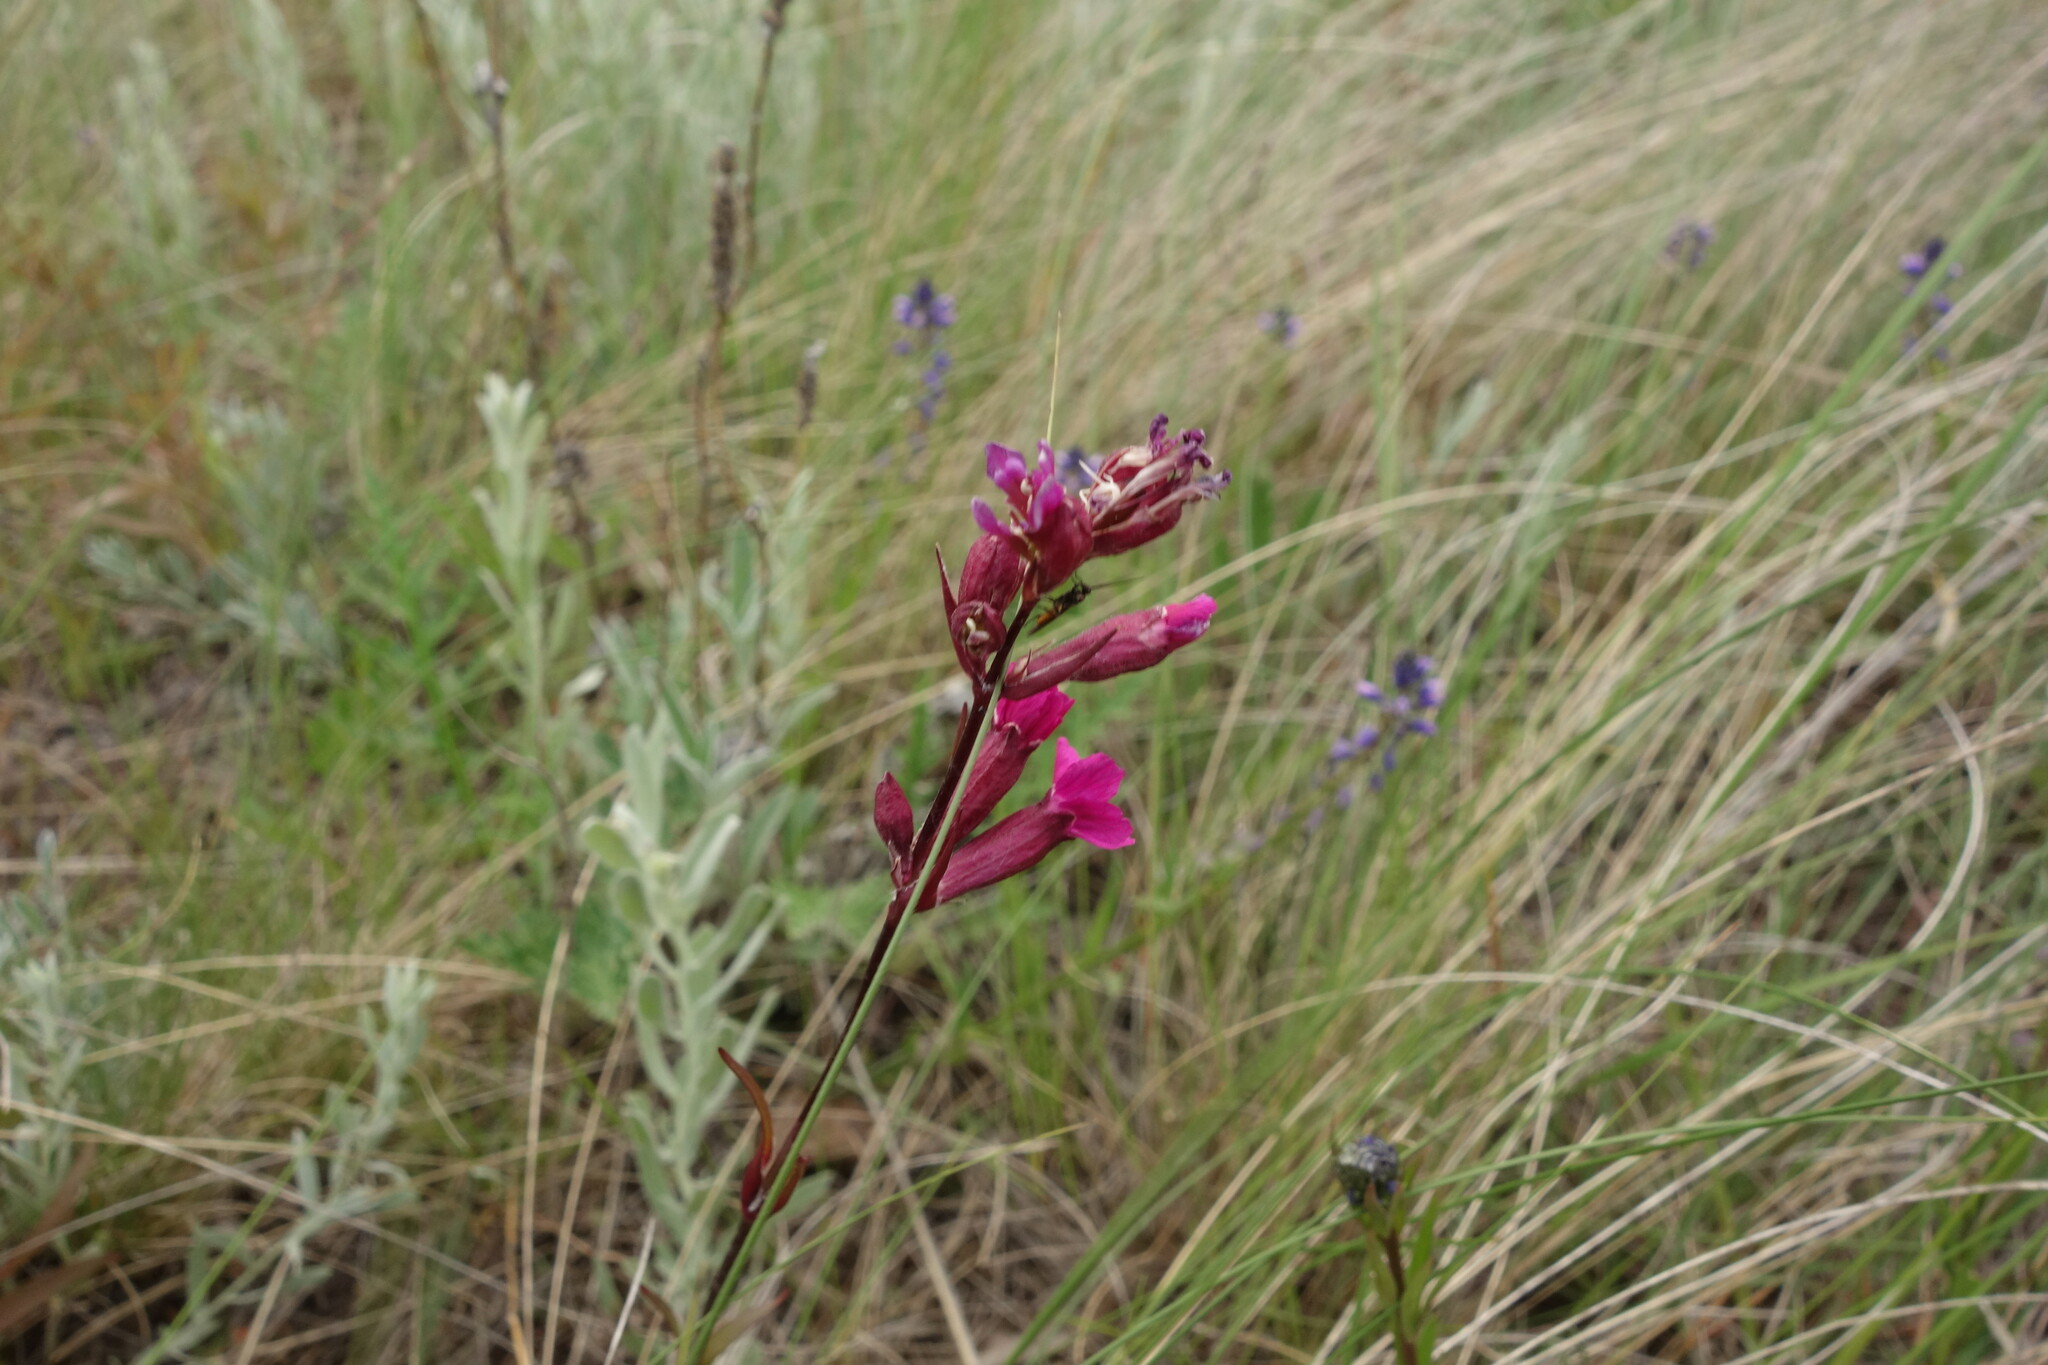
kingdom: Plantae
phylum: Tracheophyta
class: Magnoliopsida
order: Caryophyllales
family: Caryophyllaceae
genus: Viscaria
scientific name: Viscaria vulgaris
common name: Clammy campion
